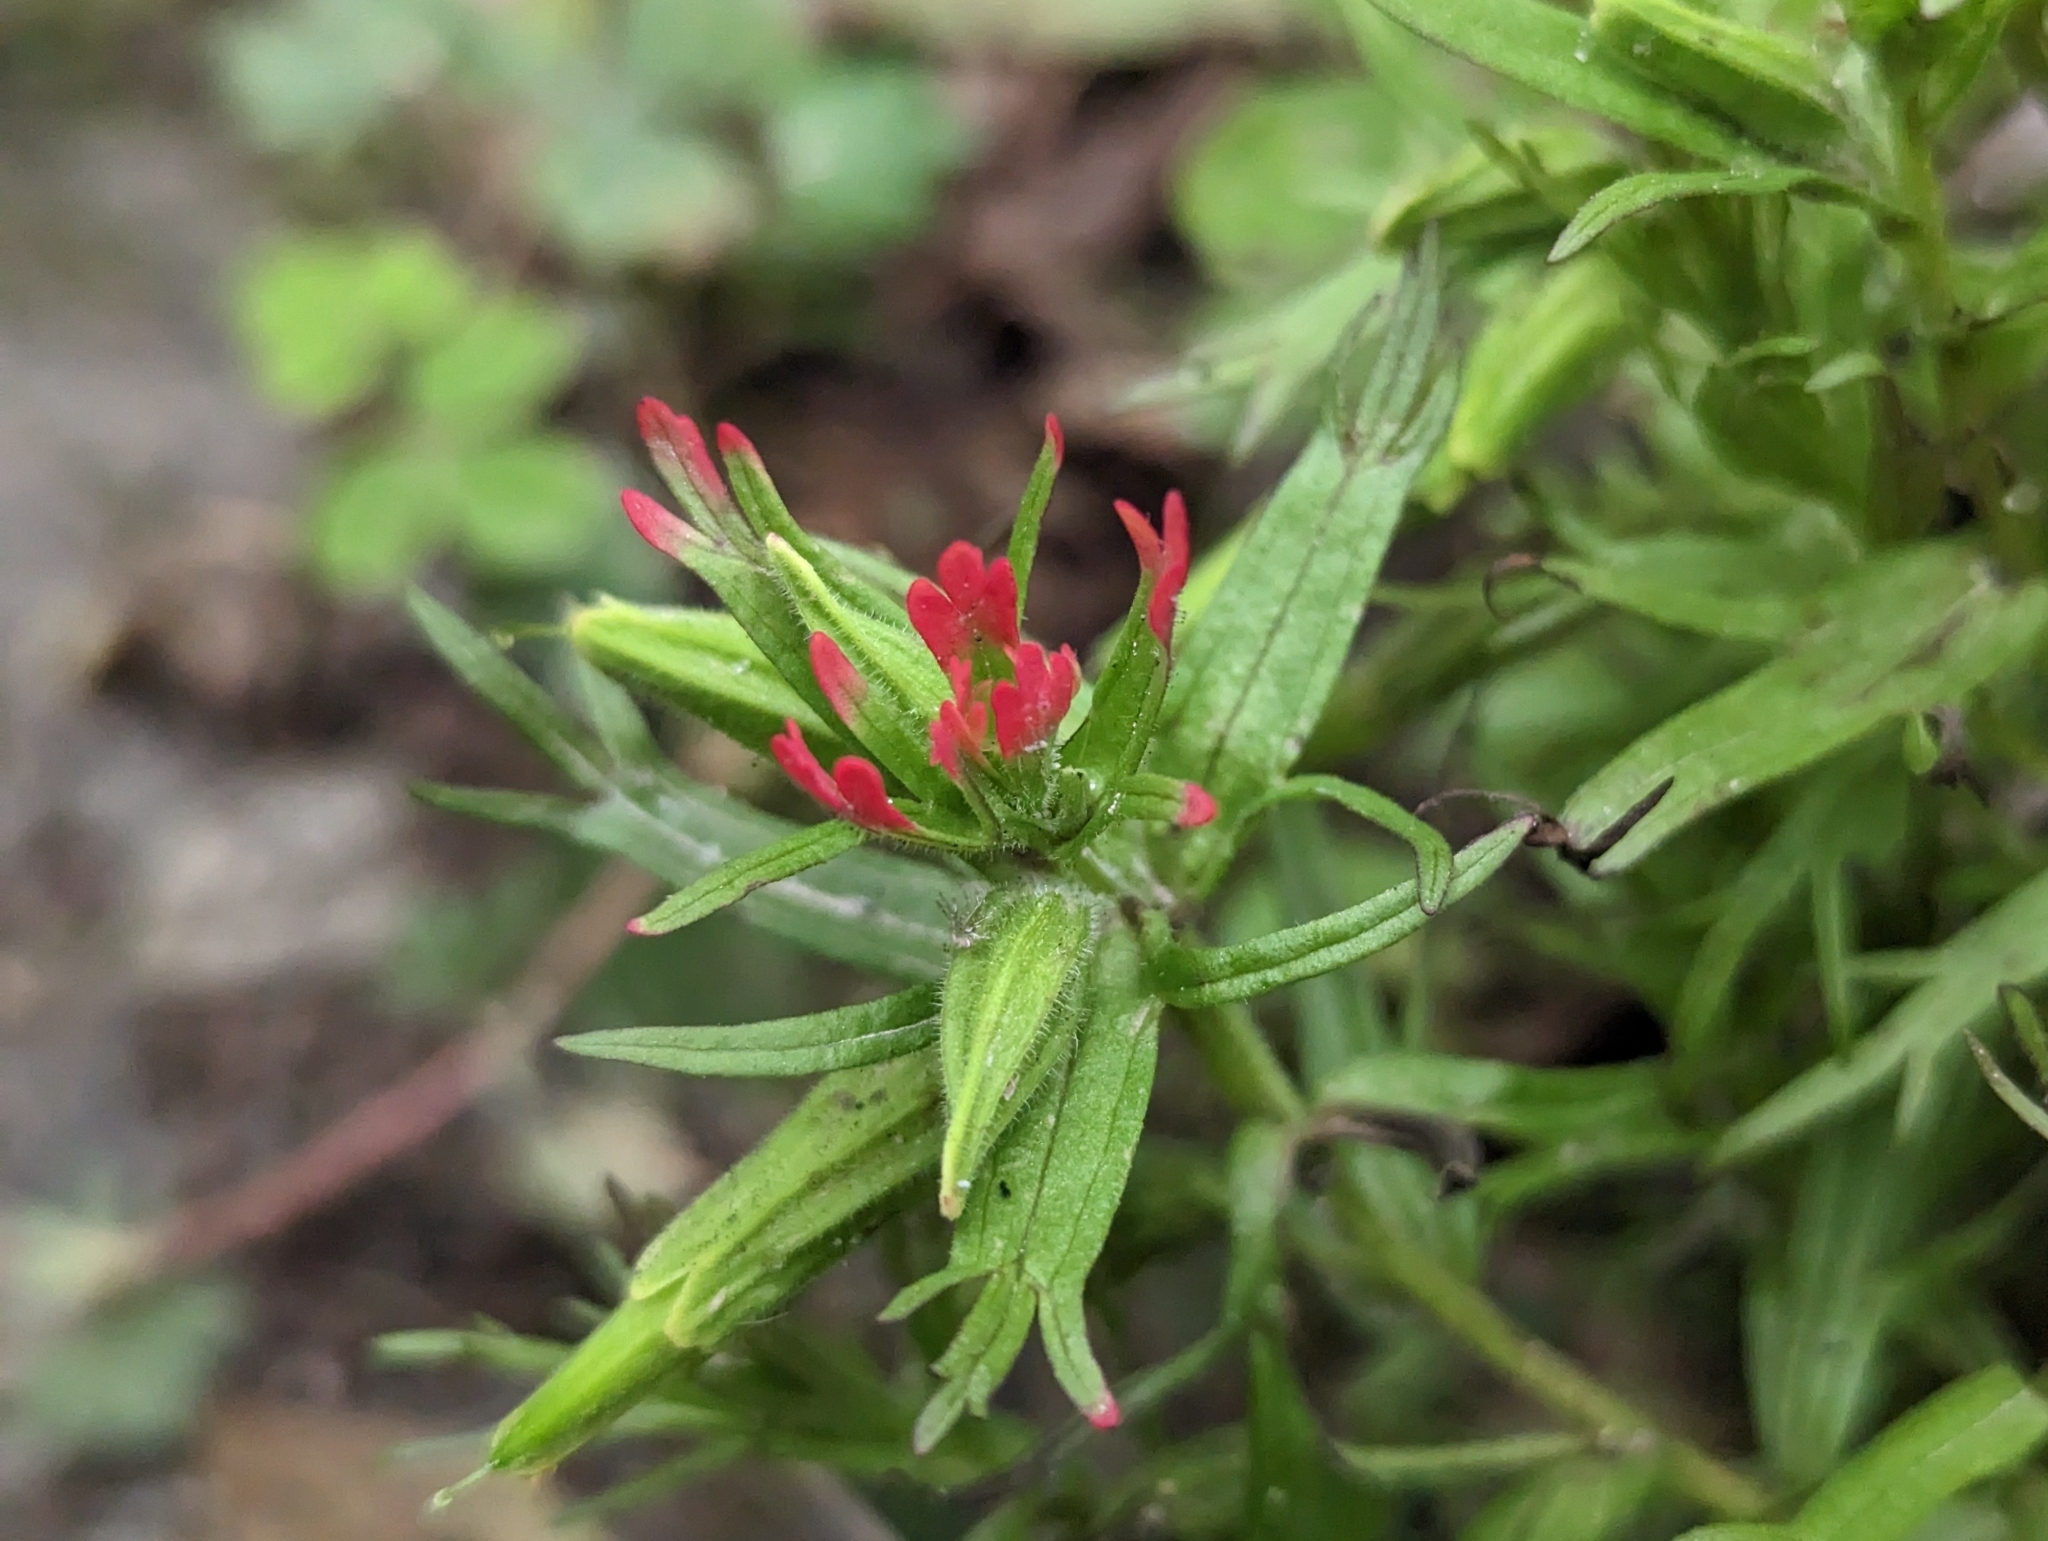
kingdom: Plantae
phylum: Tracheophyta
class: Magnoliopsida
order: Lamiales
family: Orobanchaceae
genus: Castilleja
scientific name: Castilleja fissifolia
